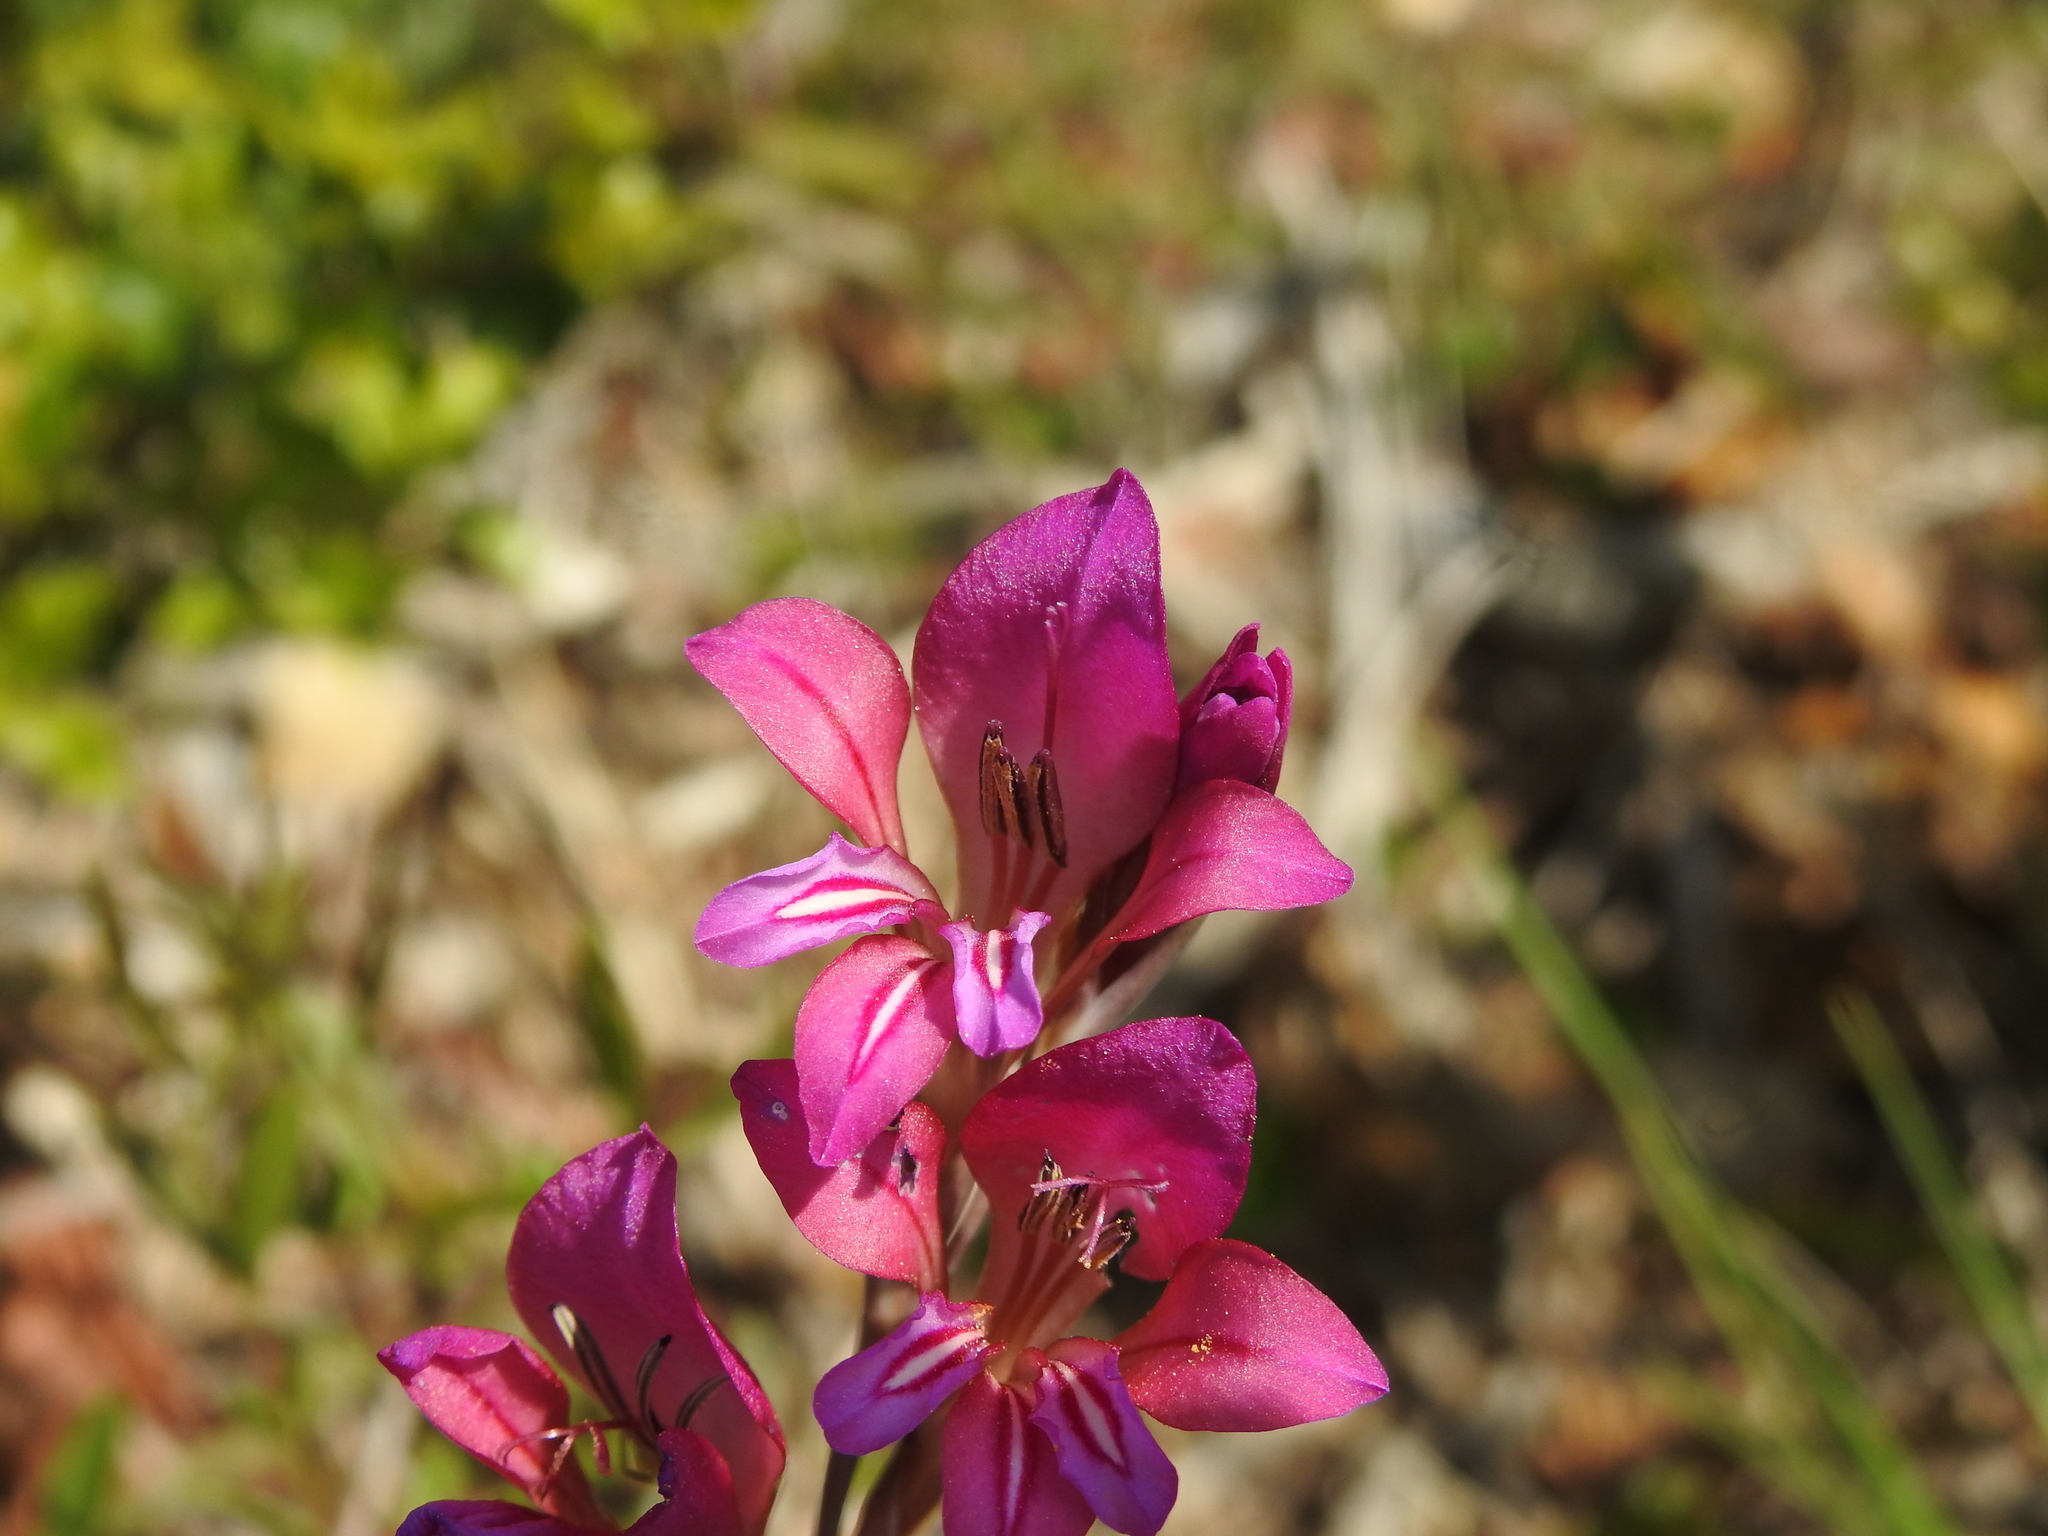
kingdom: Plantae
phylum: Tracheophyta
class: Liliopsida
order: Asparagales
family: Iridaceae
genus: Gladiolus
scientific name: Gladiolus dubius
